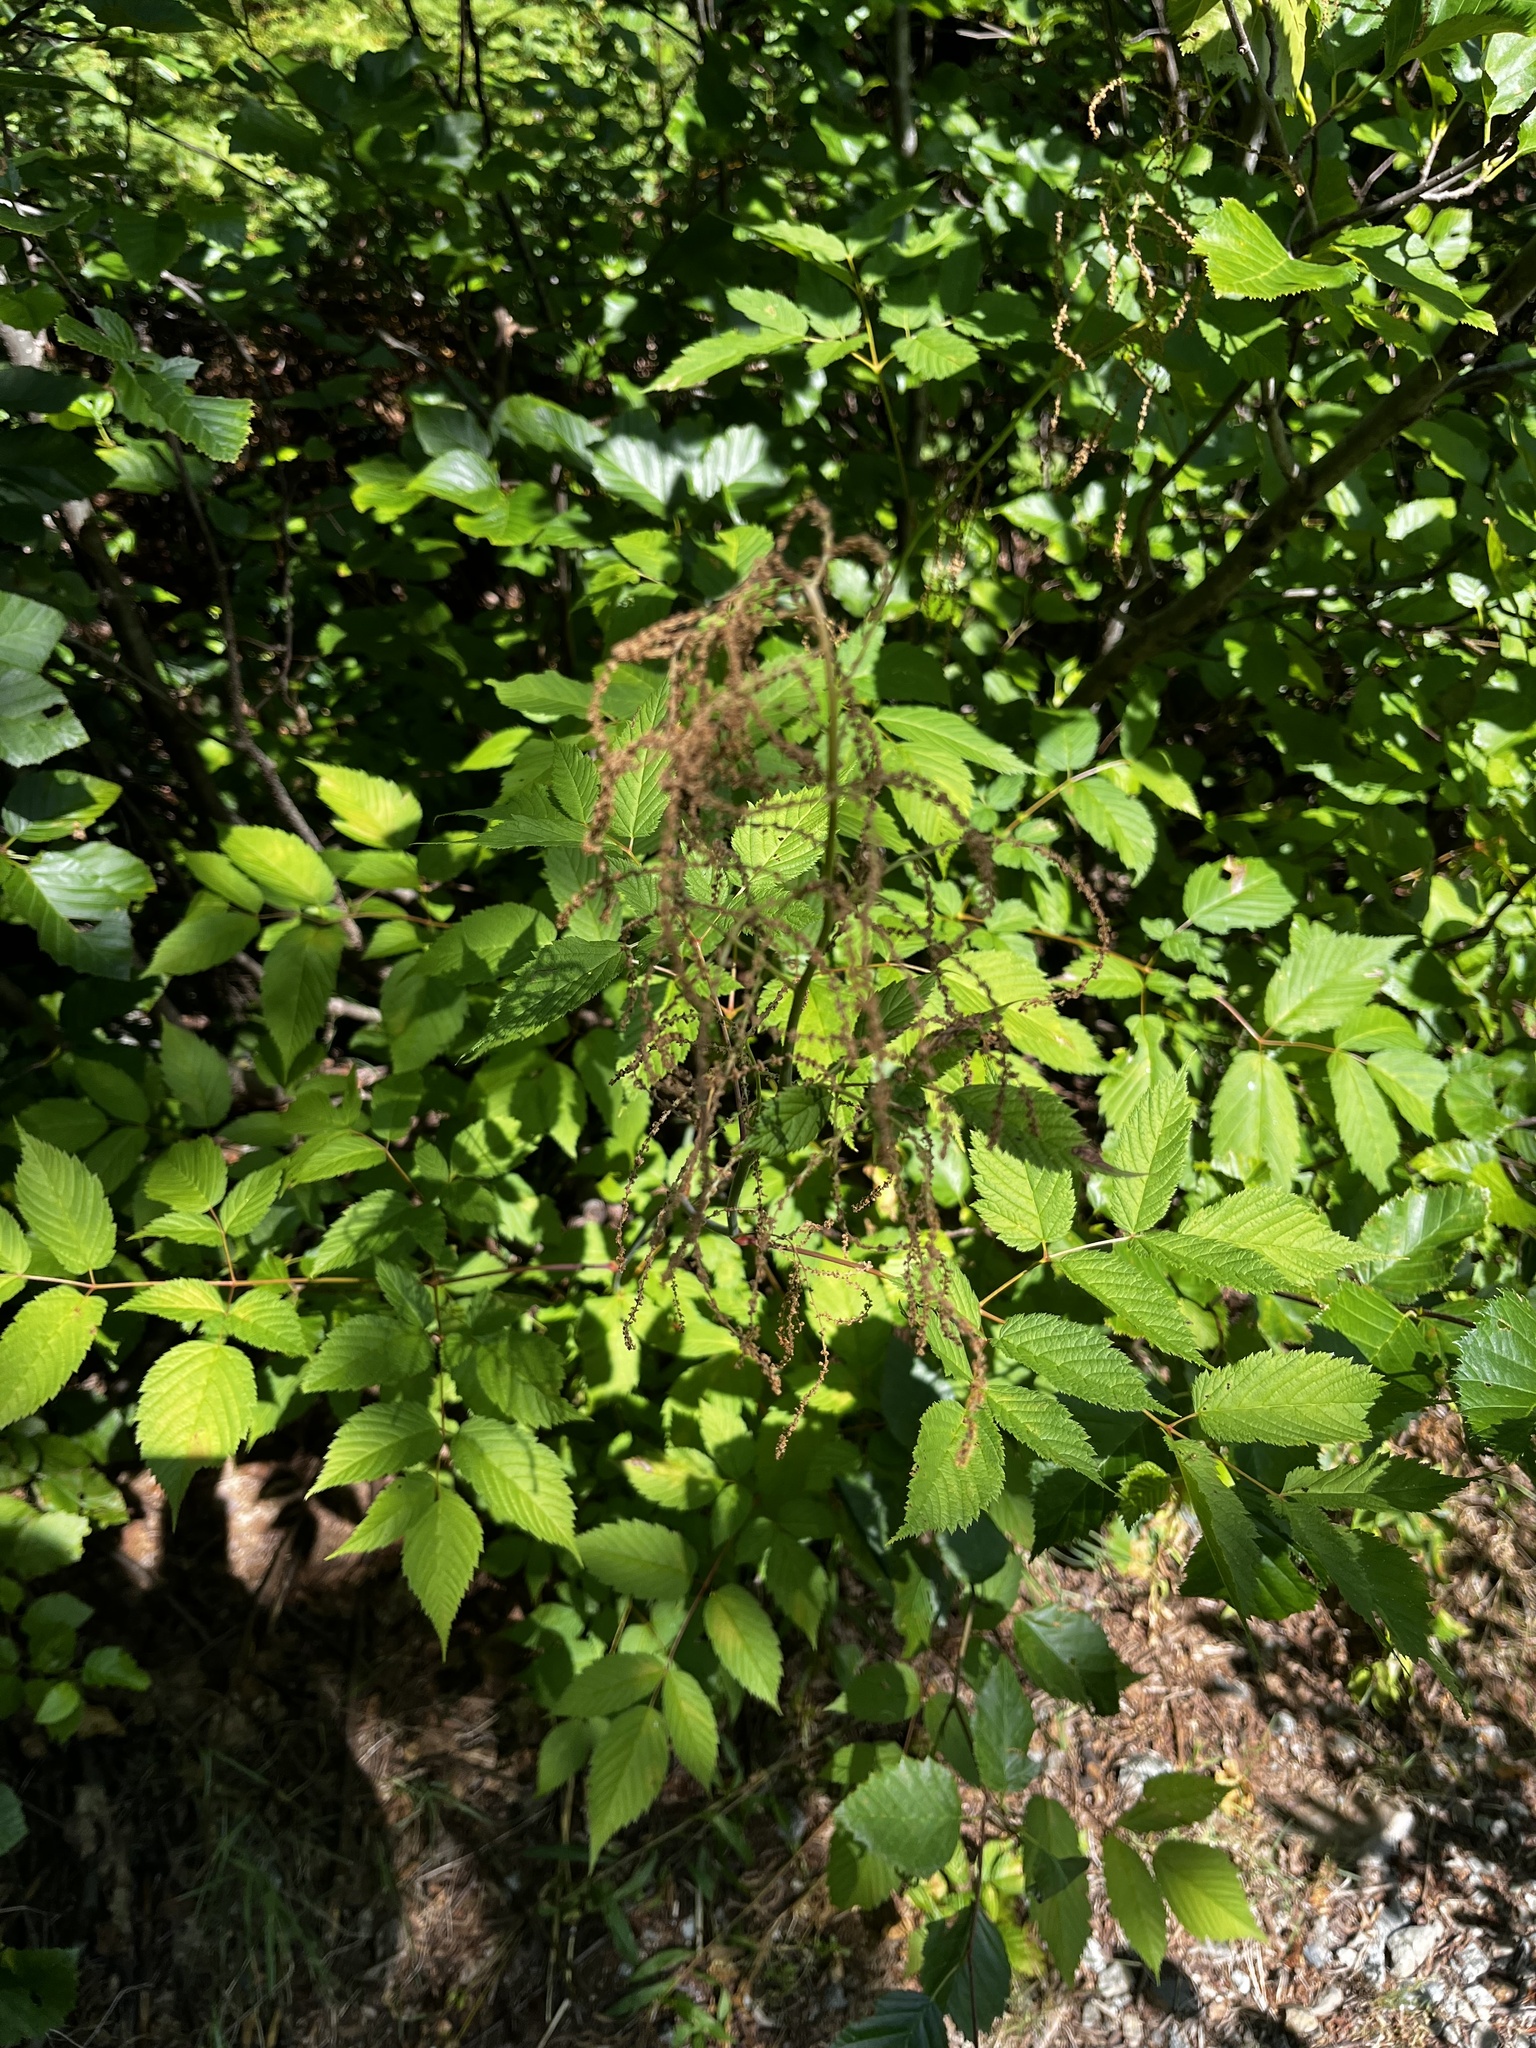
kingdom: Plantae
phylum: Tracheophyta
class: Magnoliopsida
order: Rosales
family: Rosaceae
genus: Aruncus
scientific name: Aruncus dioicus
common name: Buck's-beard
